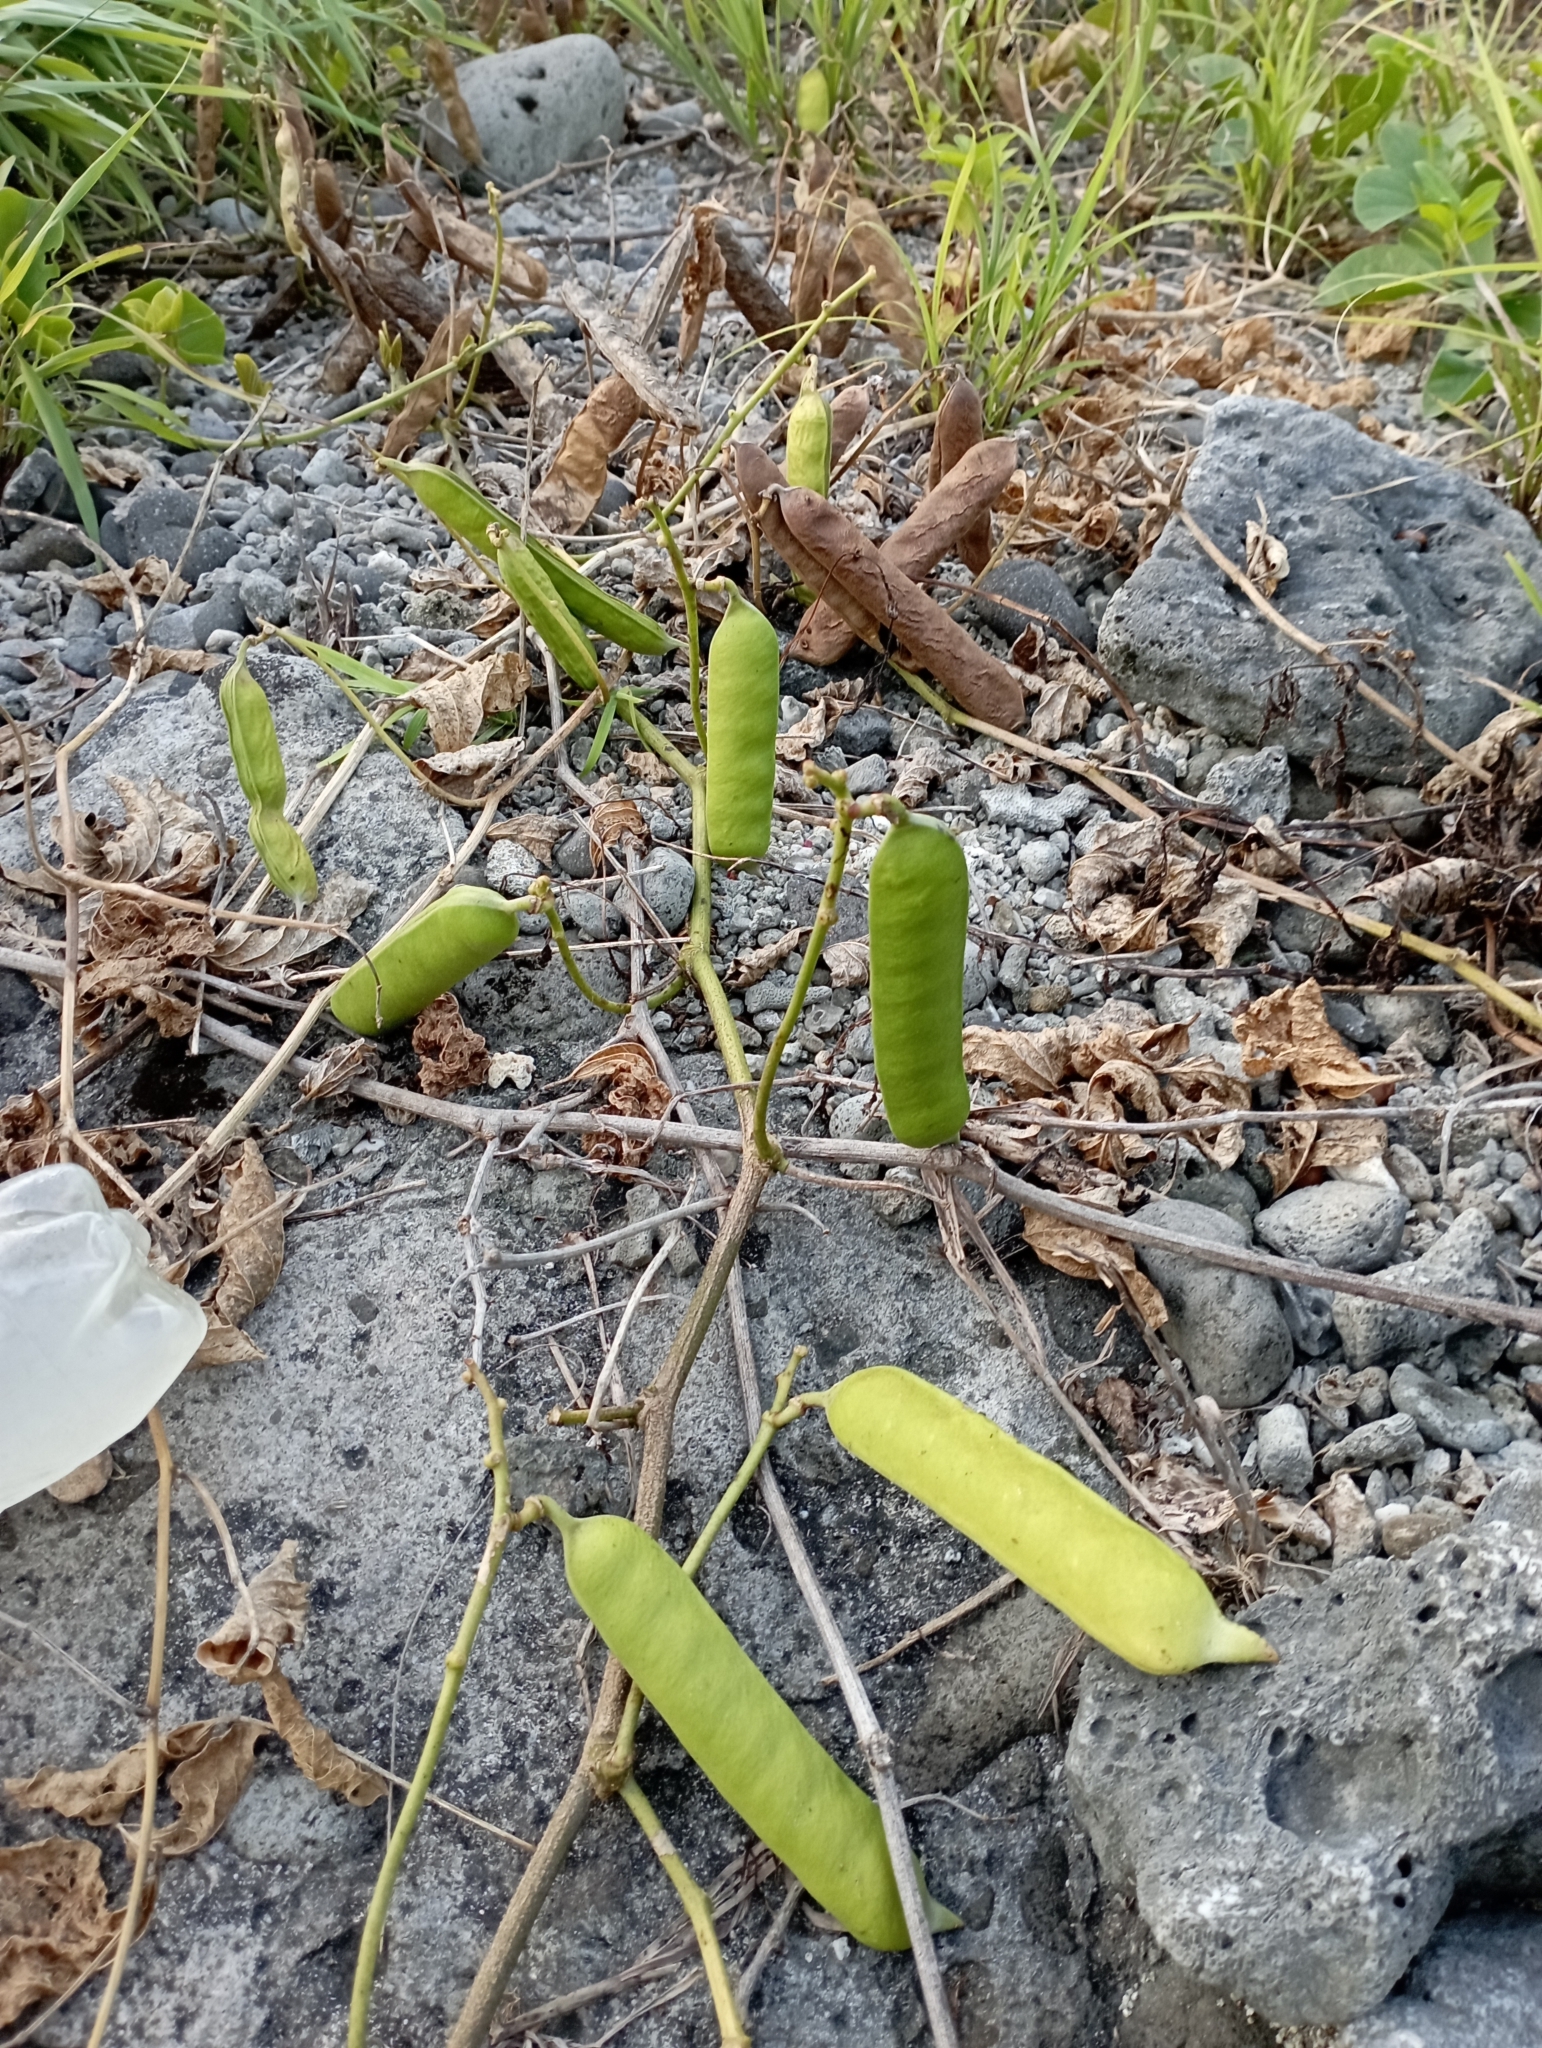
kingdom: Plantae
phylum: Tracheophyta
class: Magnoliopsida
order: Fabales
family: Fabaceae
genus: Canavalia
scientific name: Canavalia rosea
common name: Beach-bean
